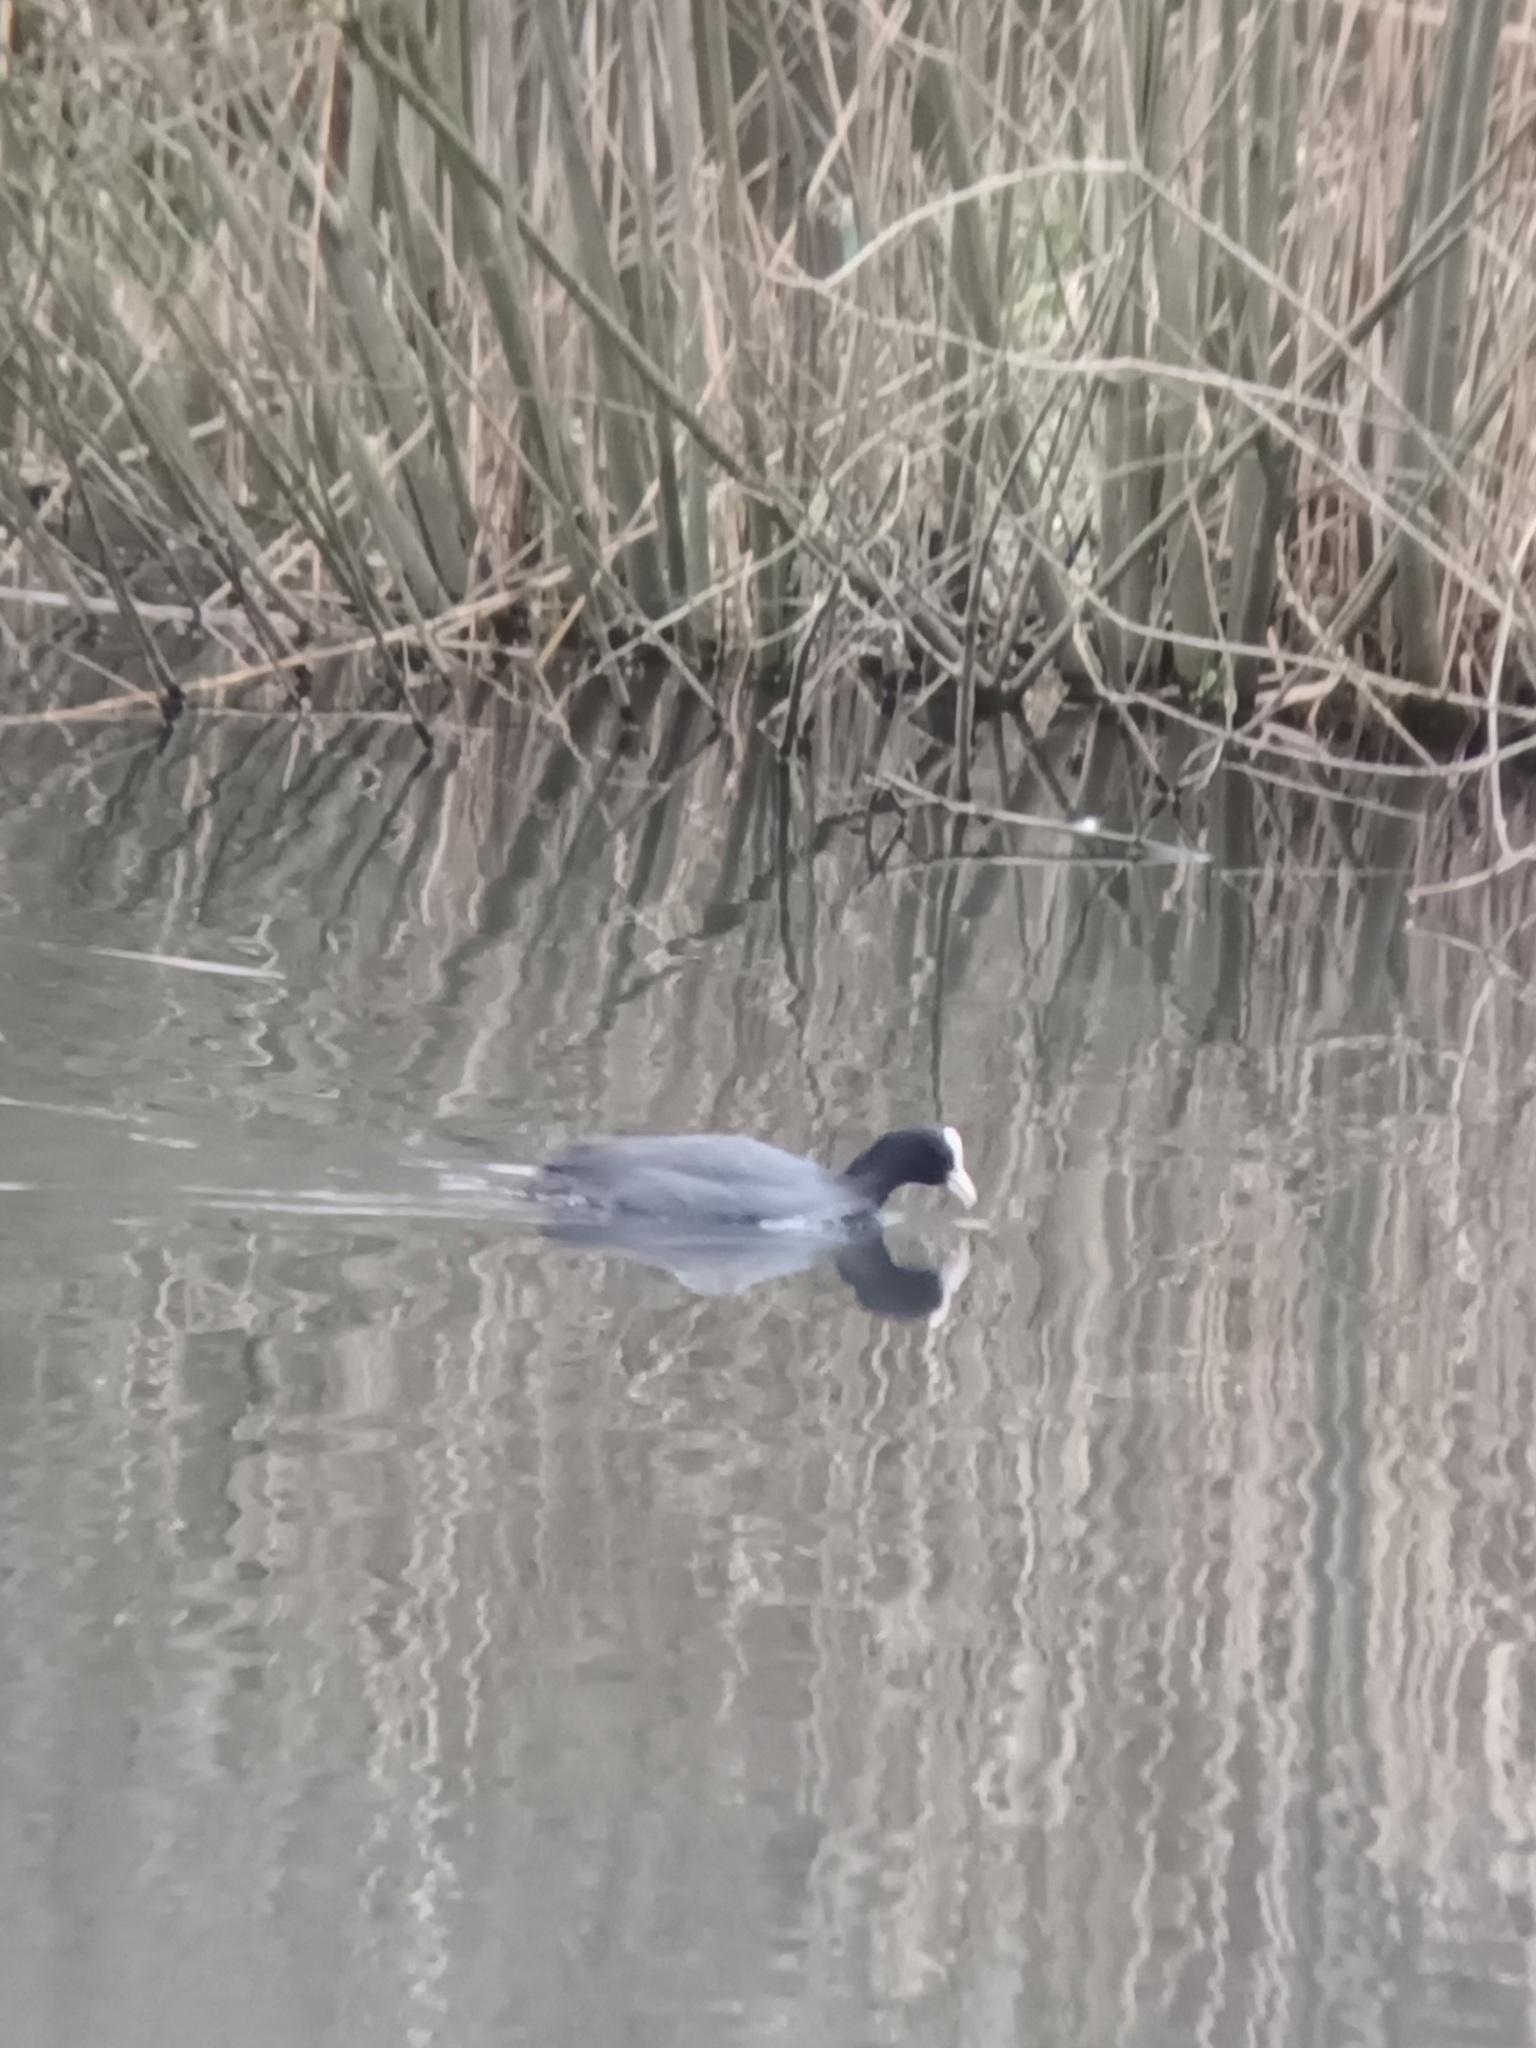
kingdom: Animalia
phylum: Chordata
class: Aves
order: Gruiformes
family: Rallidae
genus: Fulica
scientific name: Fulica atra
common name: Eurasian coot
